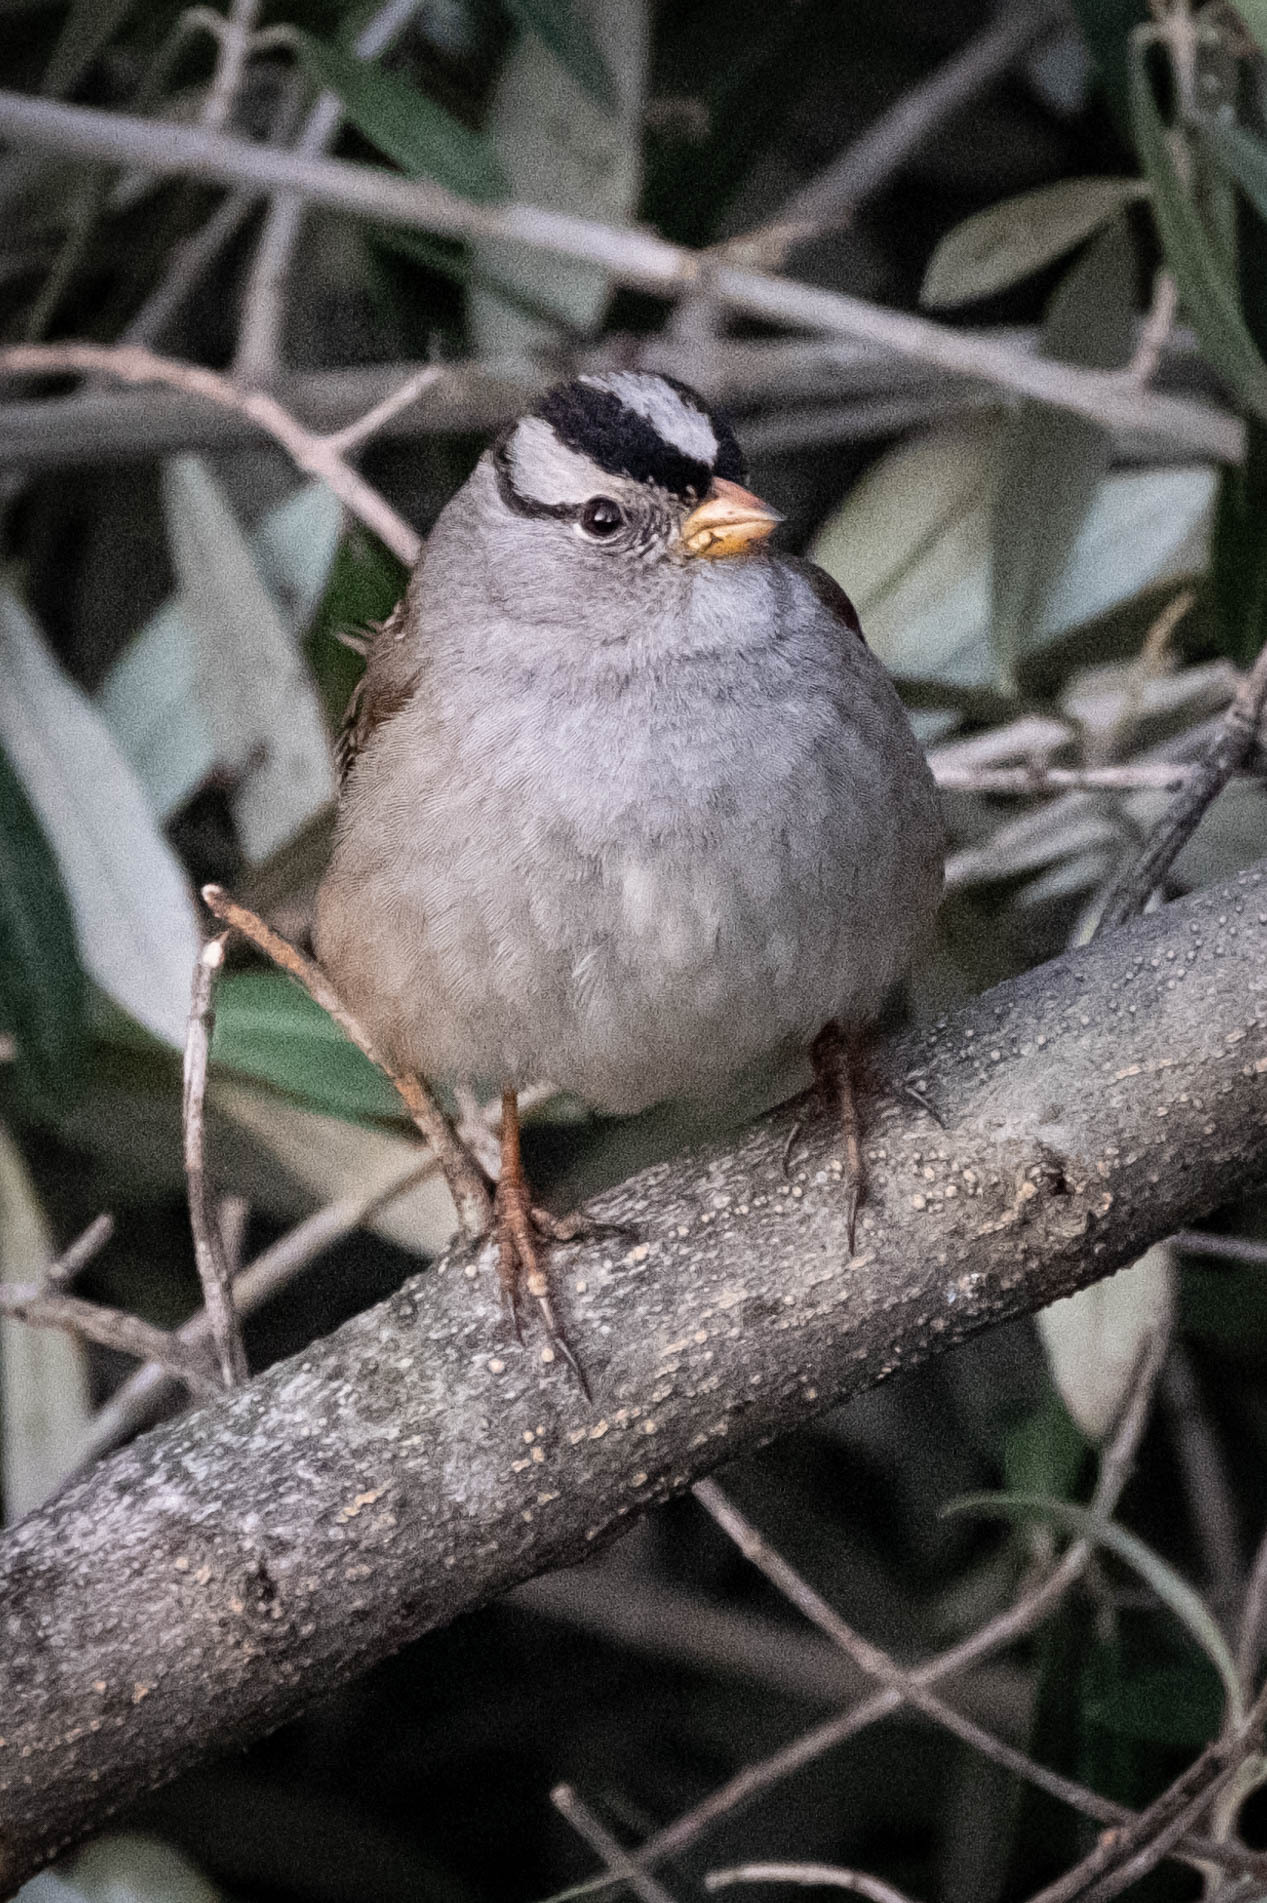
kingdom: Animalia
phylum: Chordata
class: Aves
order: Passeriformes
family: Passerellidae
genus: Zonotrichia
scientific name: Zonotrichia leucophrys
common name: White-crowned sparrow
